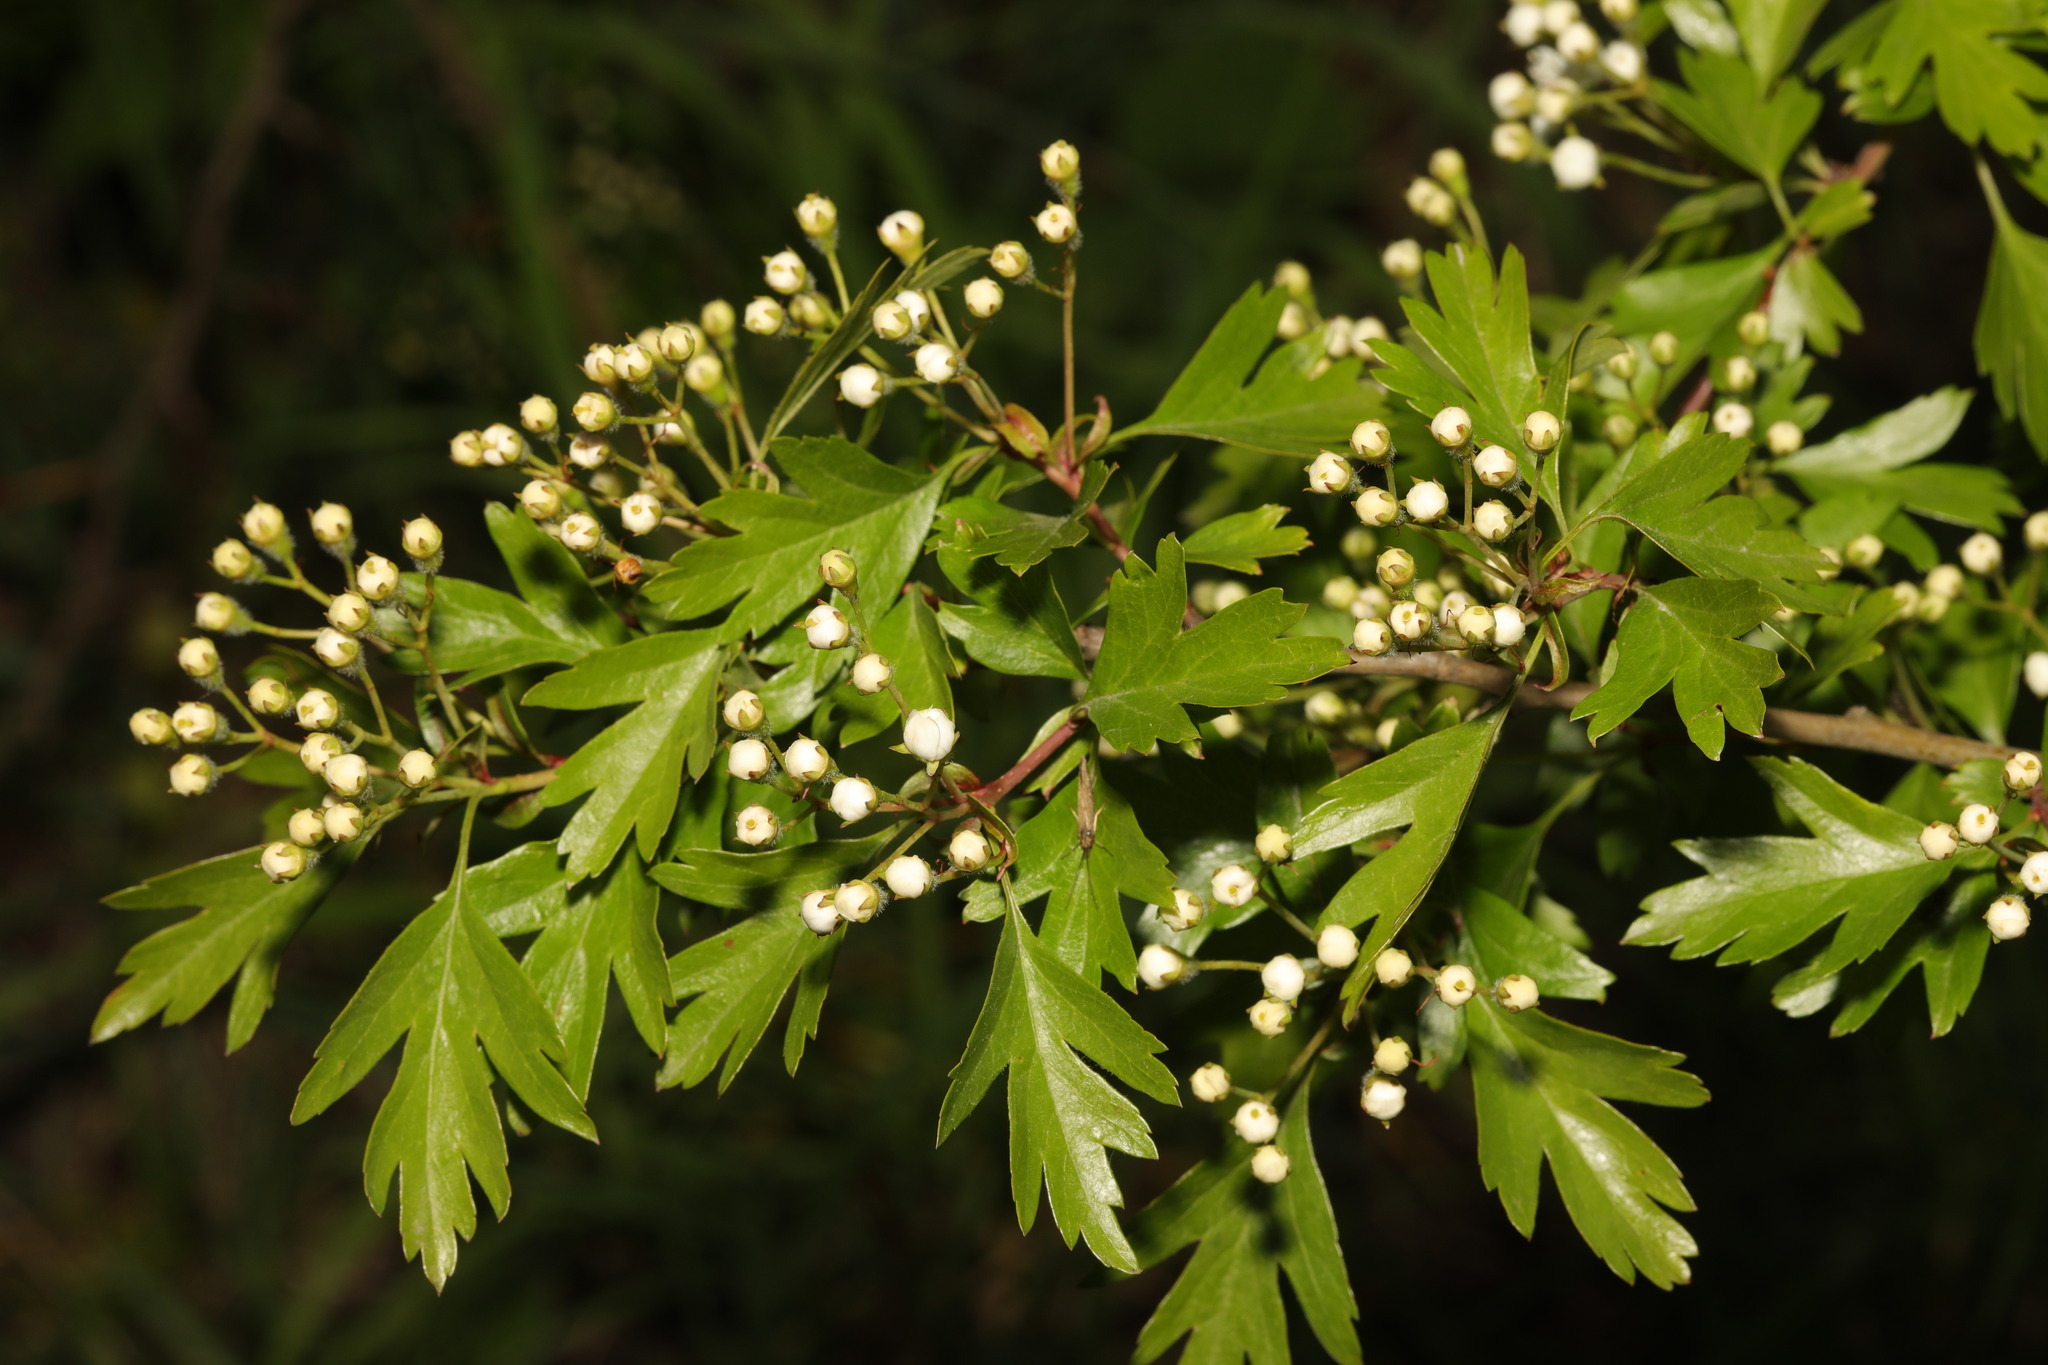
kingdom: Plantae
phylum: Tracheophyta
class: Magnoliopsida
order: Rosales
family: Rosaceae
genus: Crataegus
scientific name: Crataegus monogyna
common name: Hawthorn
